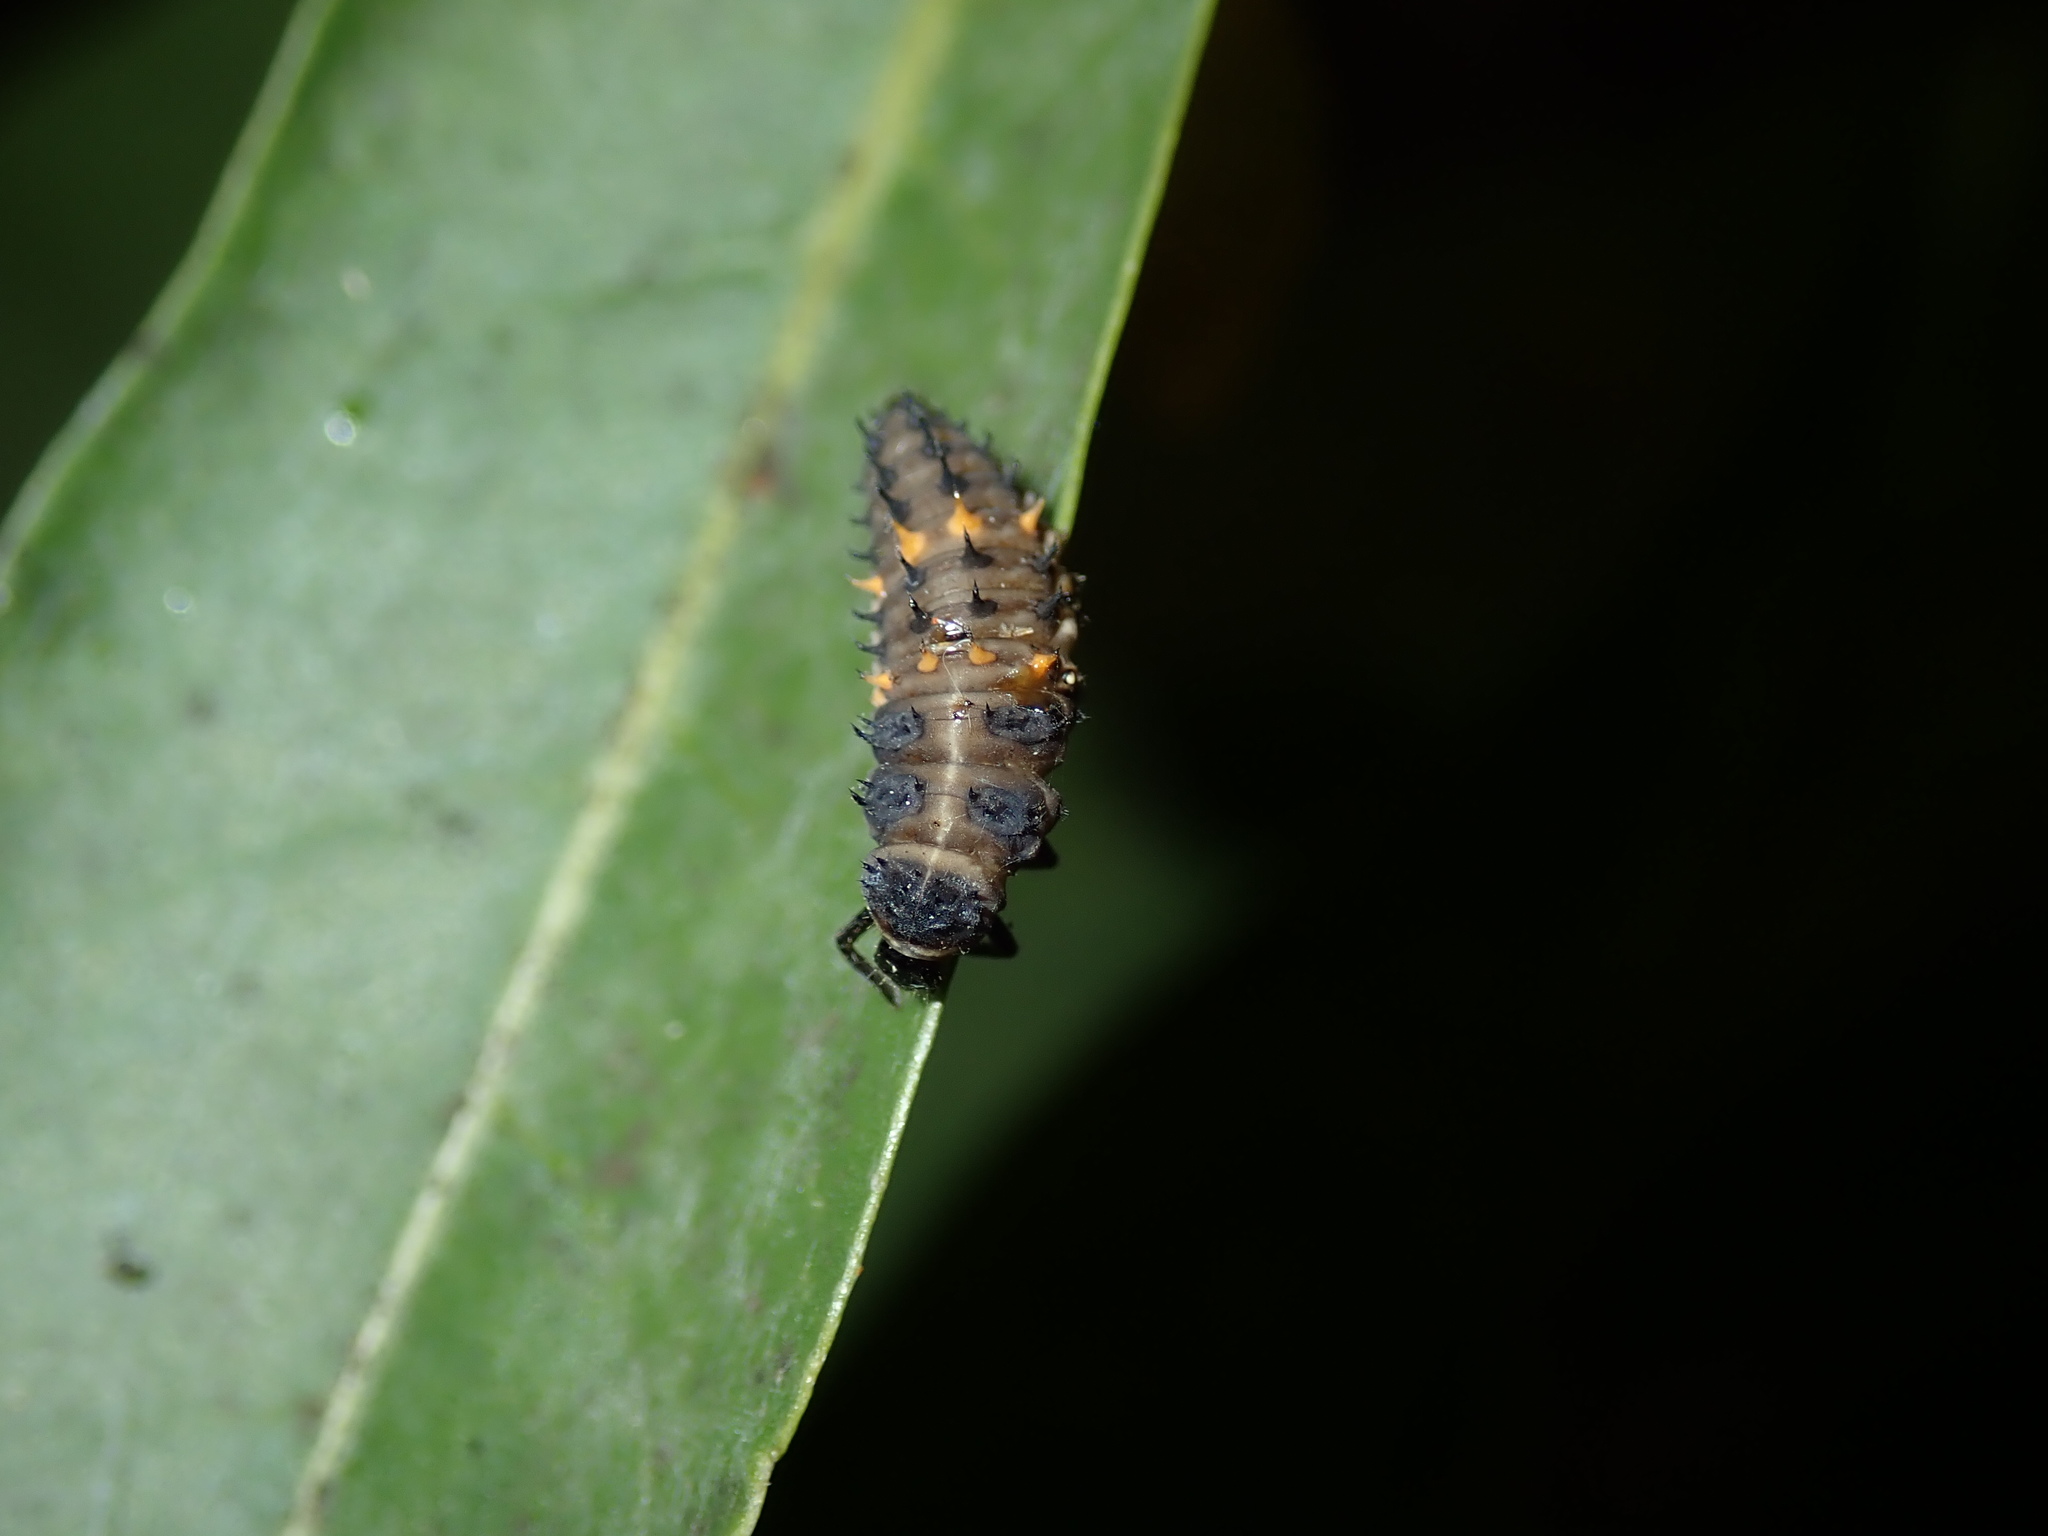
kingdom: Animalia
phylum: Arthropoda
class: Insecta
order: Coleoptera
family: Coccinellidae
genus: Harmonia
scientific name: Harmonia conformis
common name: Common spotted ladybird beetle
